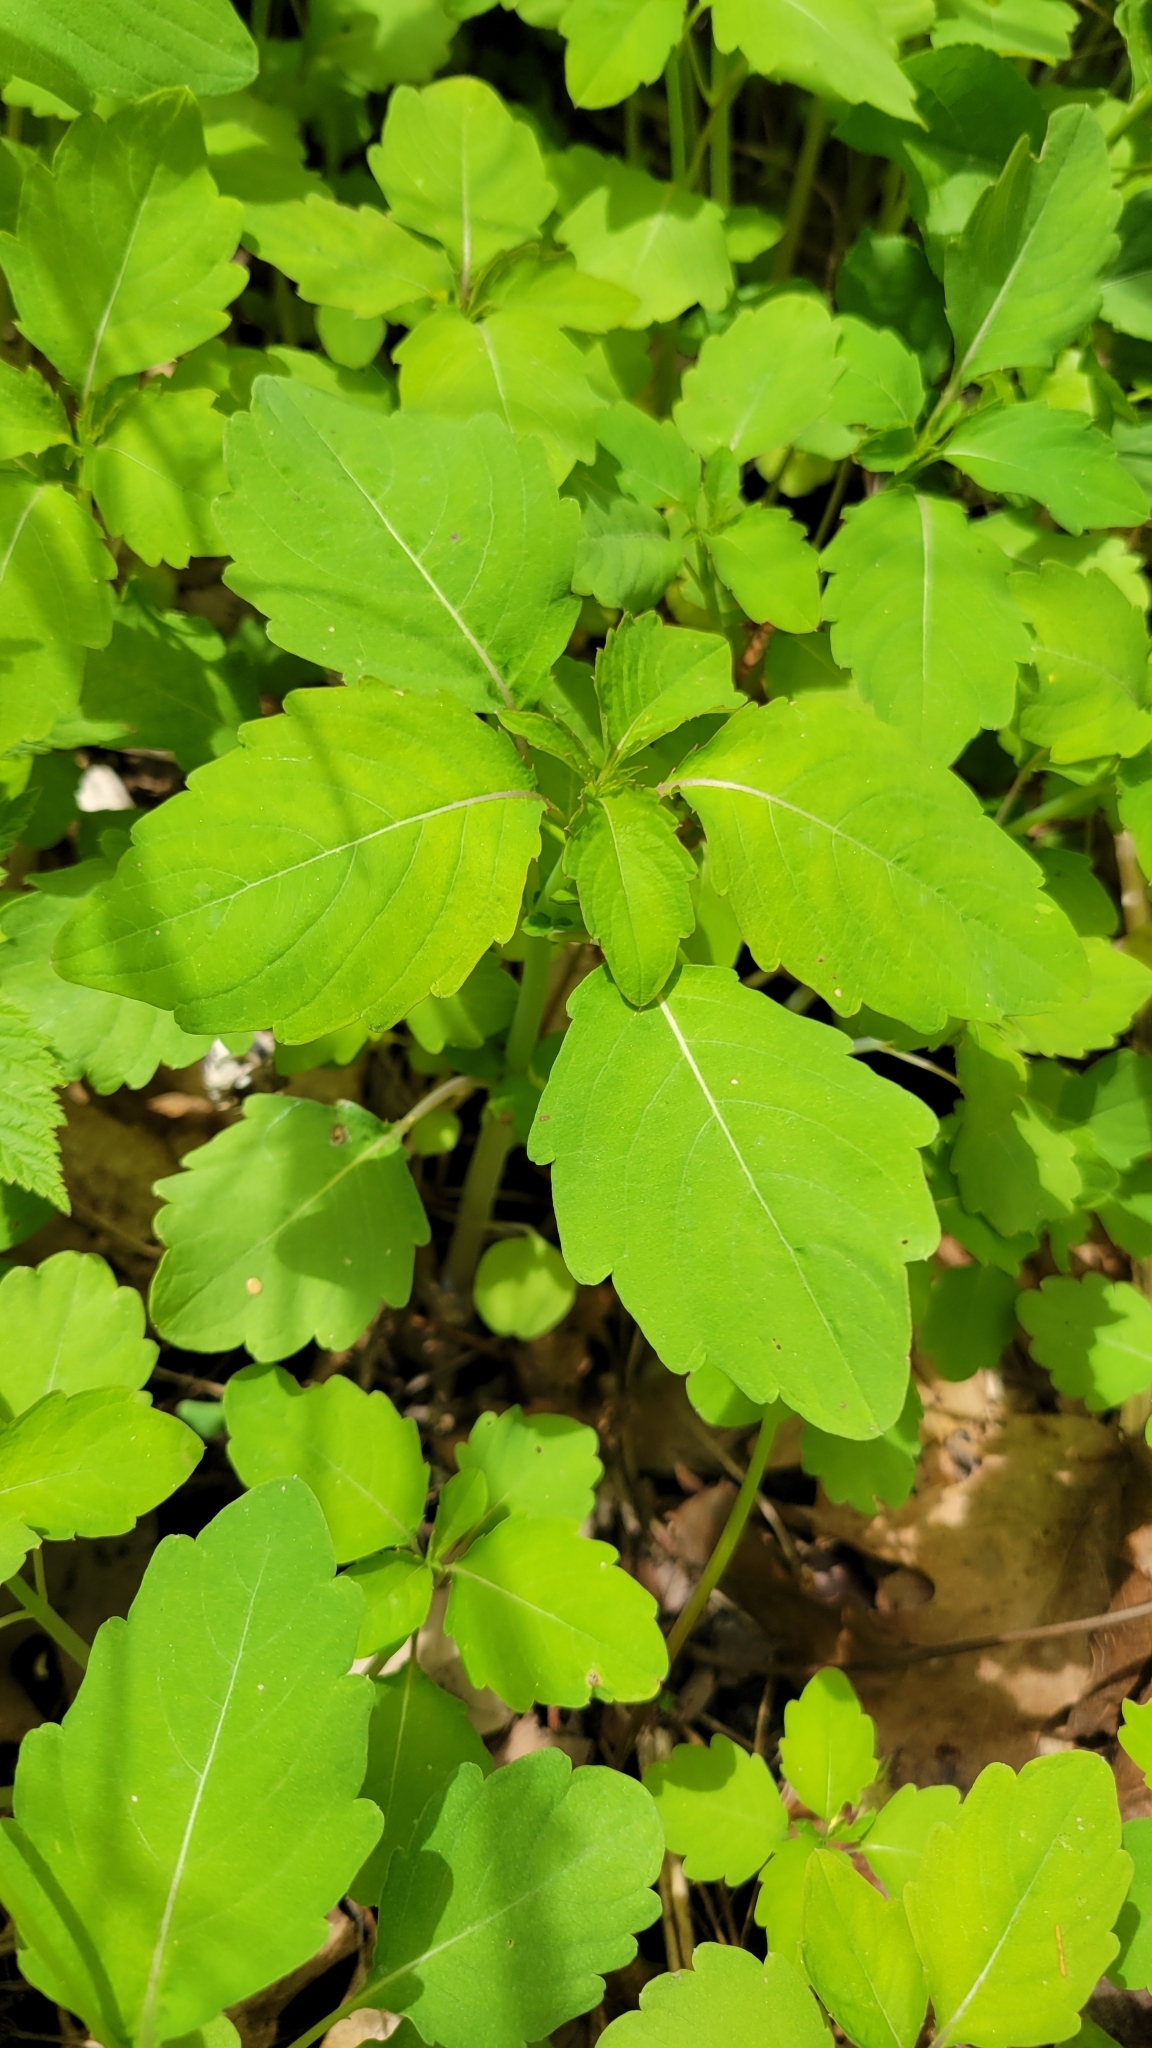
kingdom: Plantae
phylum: Tracheophyta
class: Magnoliopsida
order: Ericales
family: Balsaminaceae
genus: Impatiens
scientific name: Impatiens capensis
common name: Orange balsam
